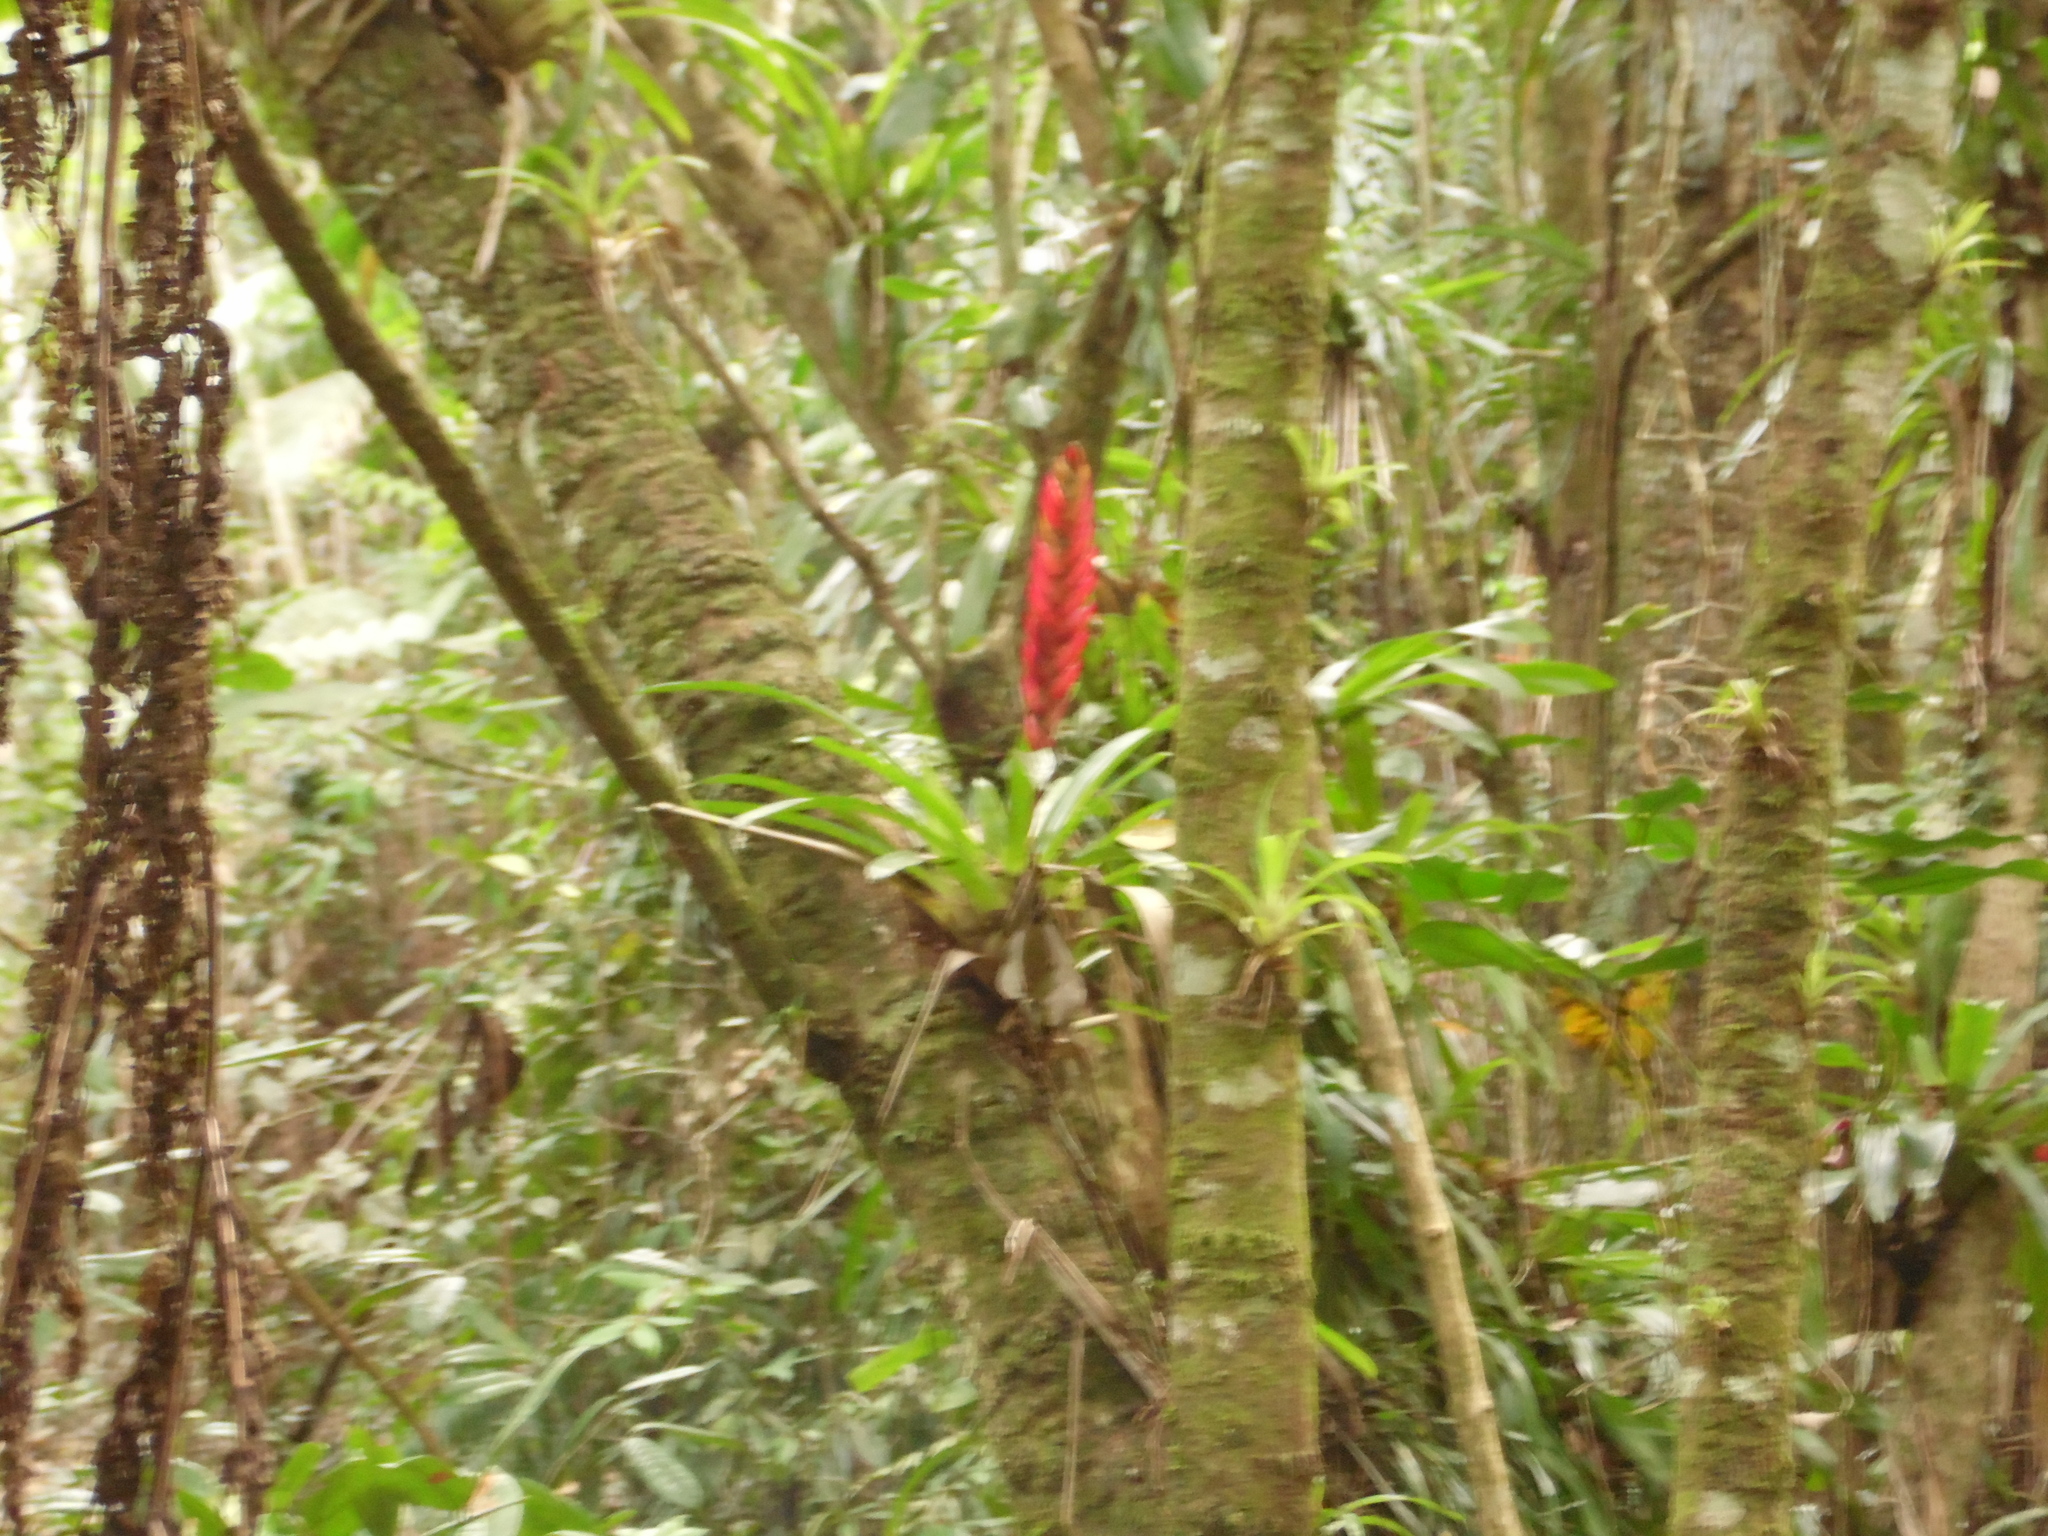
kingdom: Plantae
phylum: Tracheophyta
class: Liliopsida
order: Poales
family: Bromeliaceae
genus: Vriesea
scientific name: Vriesea incurvata
